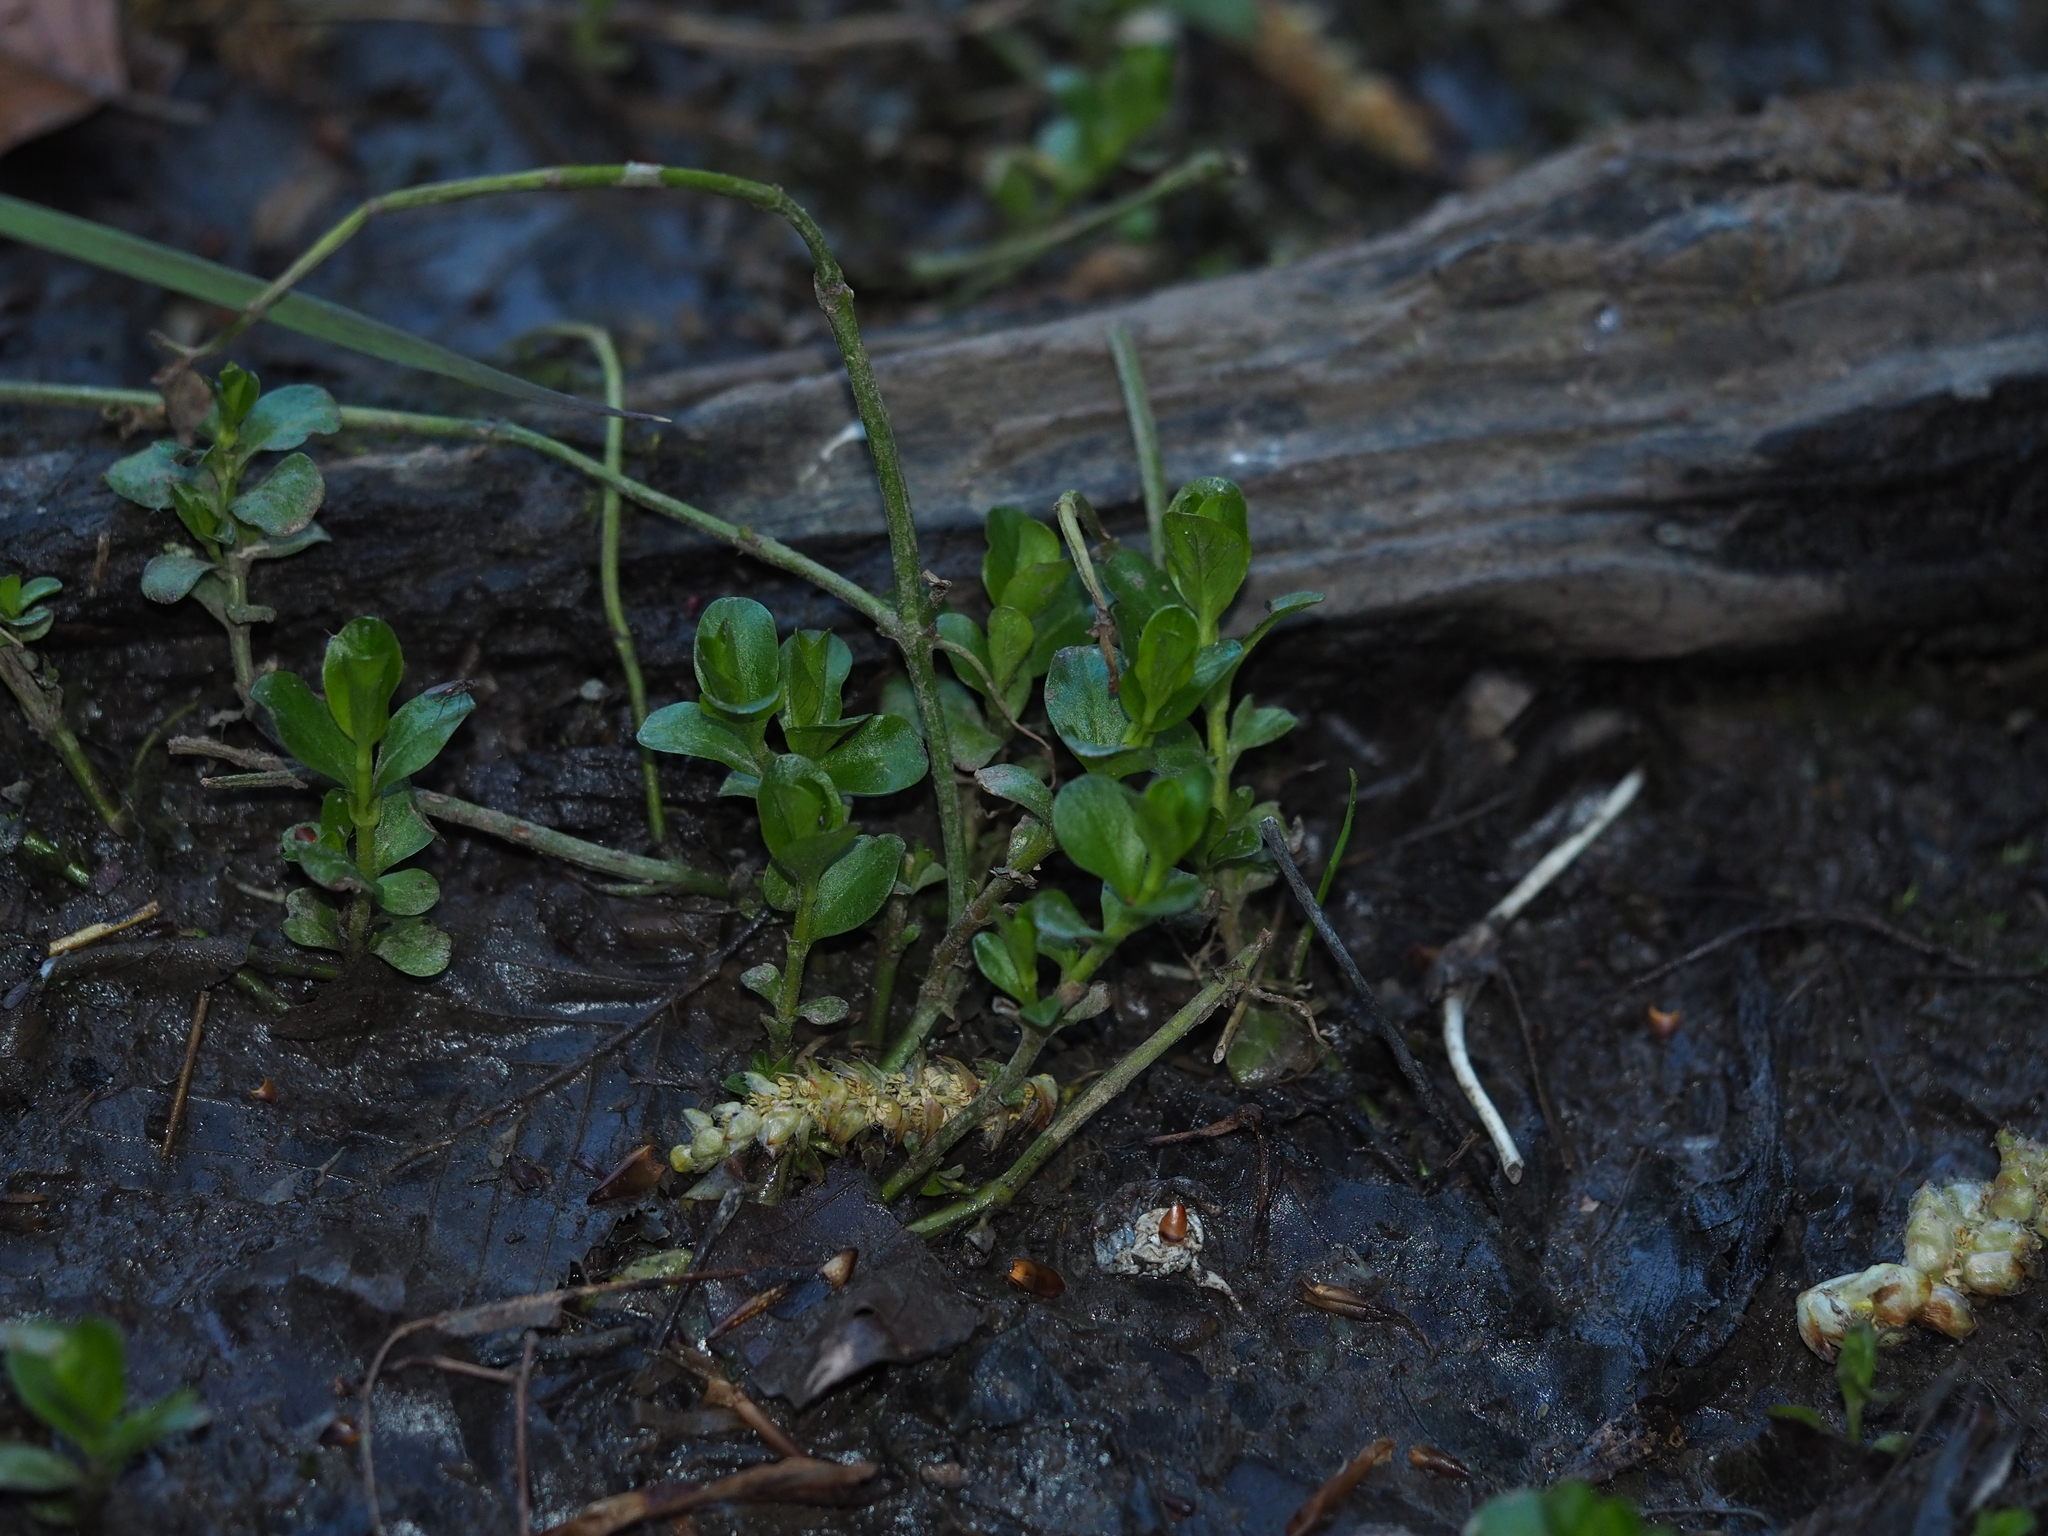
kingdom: Plantae
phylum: Tracheophyta
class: Magnoliopsida
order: Ericales
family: Primulaceae
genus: Lysimachia
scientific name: Lysimachia nummularia
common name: Moneywort
